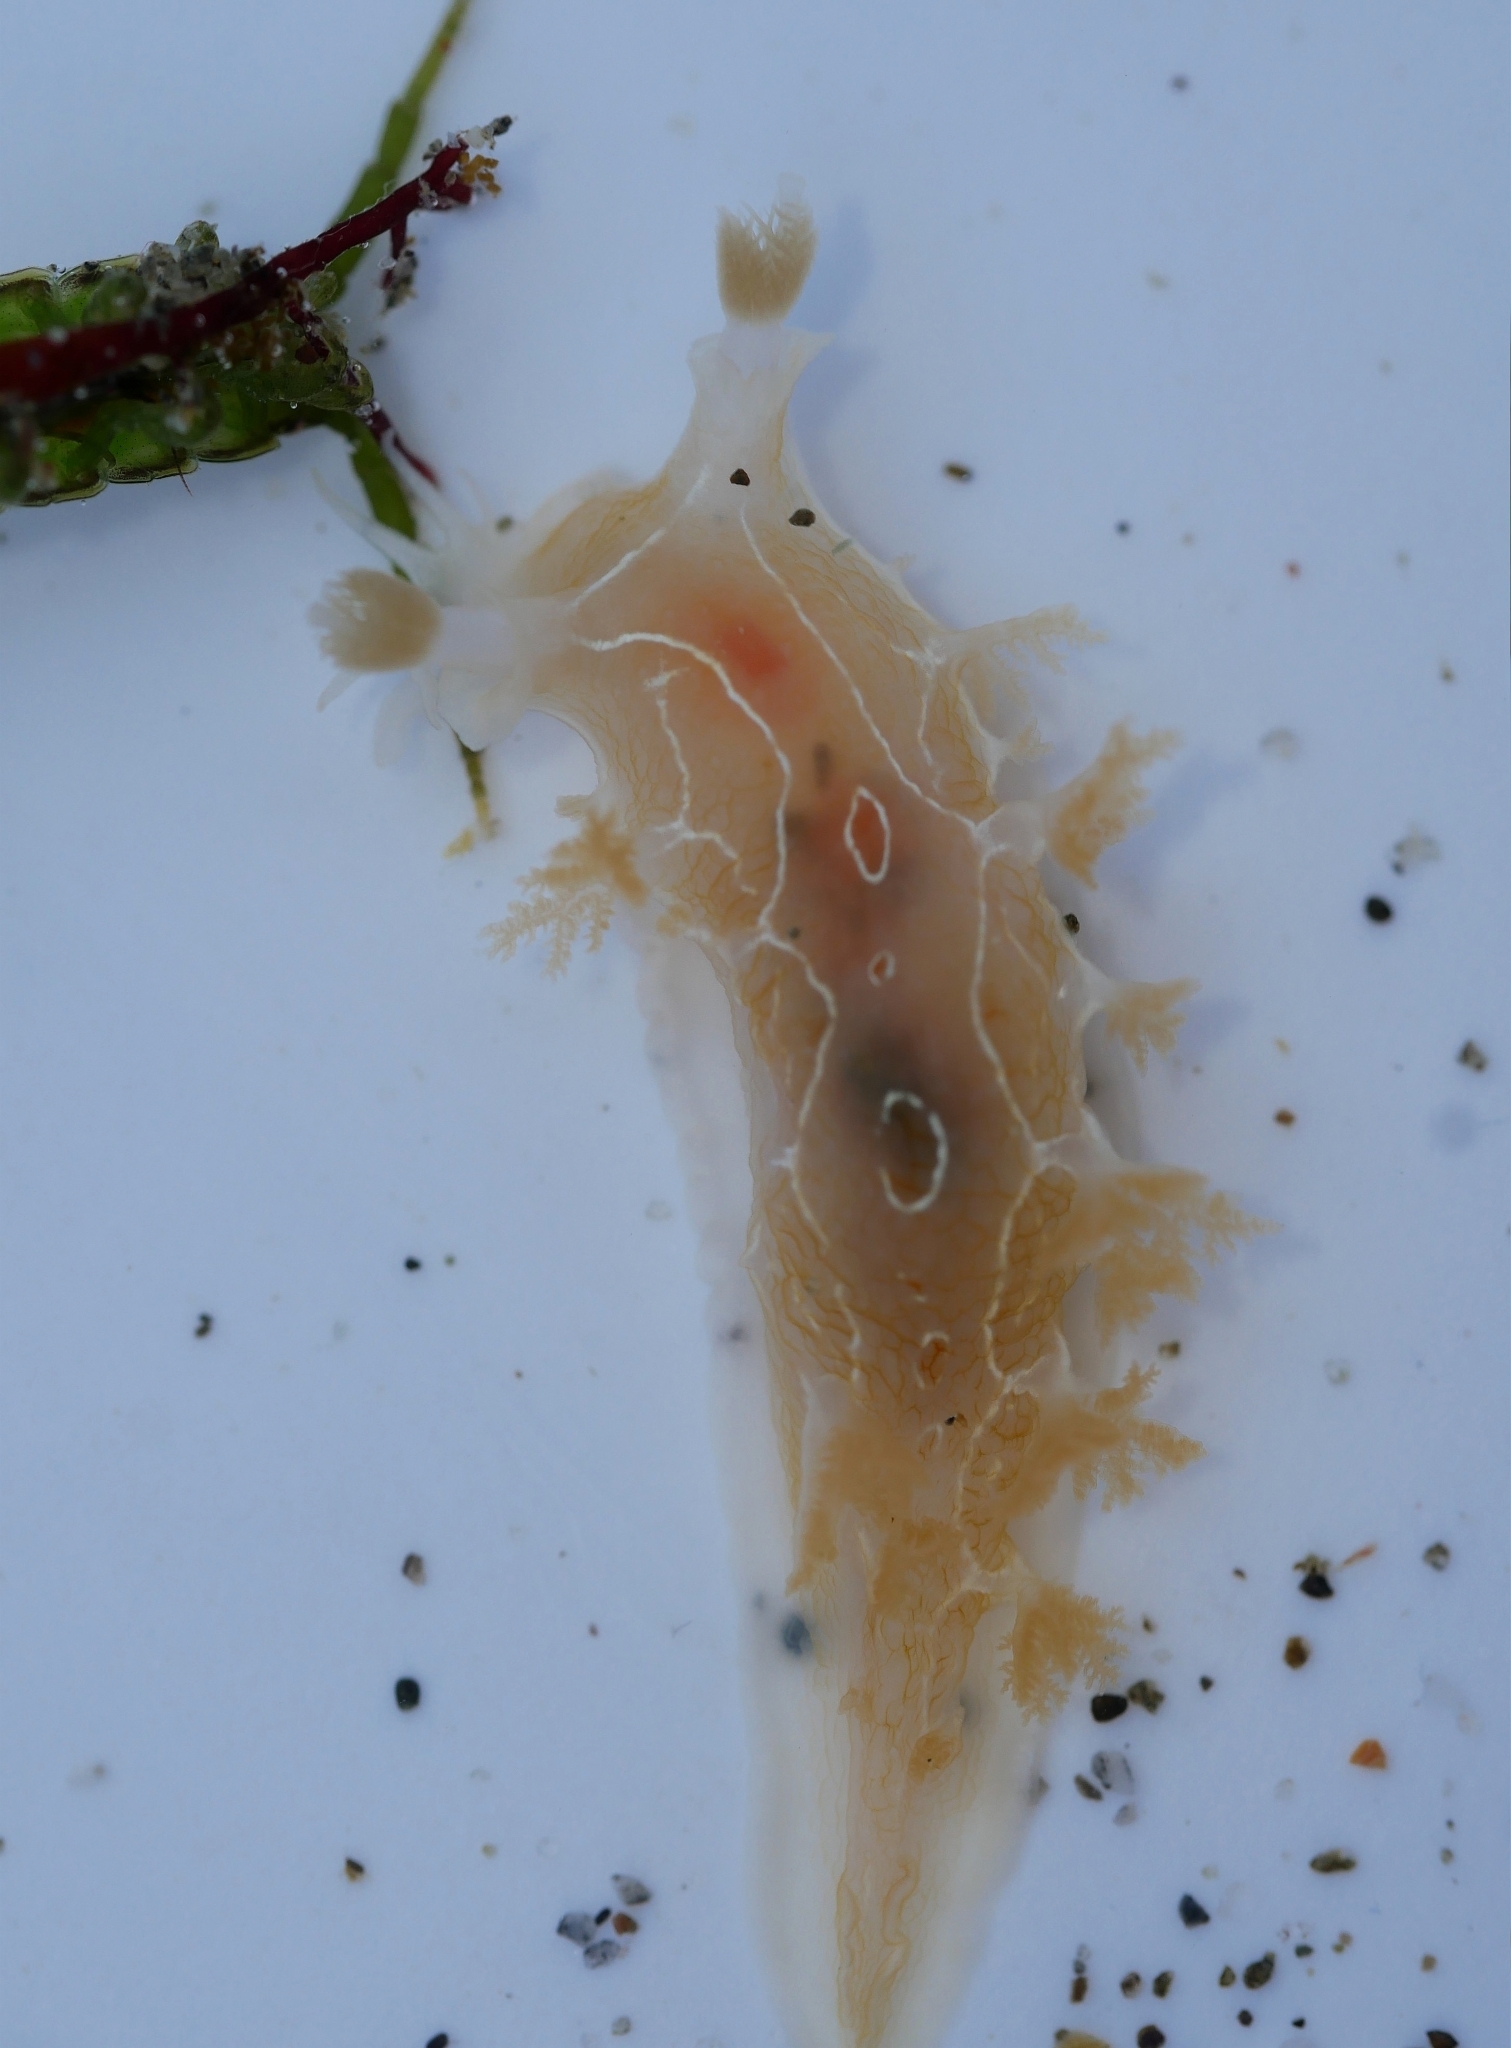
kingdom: Animalia
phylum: Mollusca
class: Gastropoda
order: Nudibranchia
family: Tritoniidae
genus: Tritonia
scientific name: Tritonia festiva
